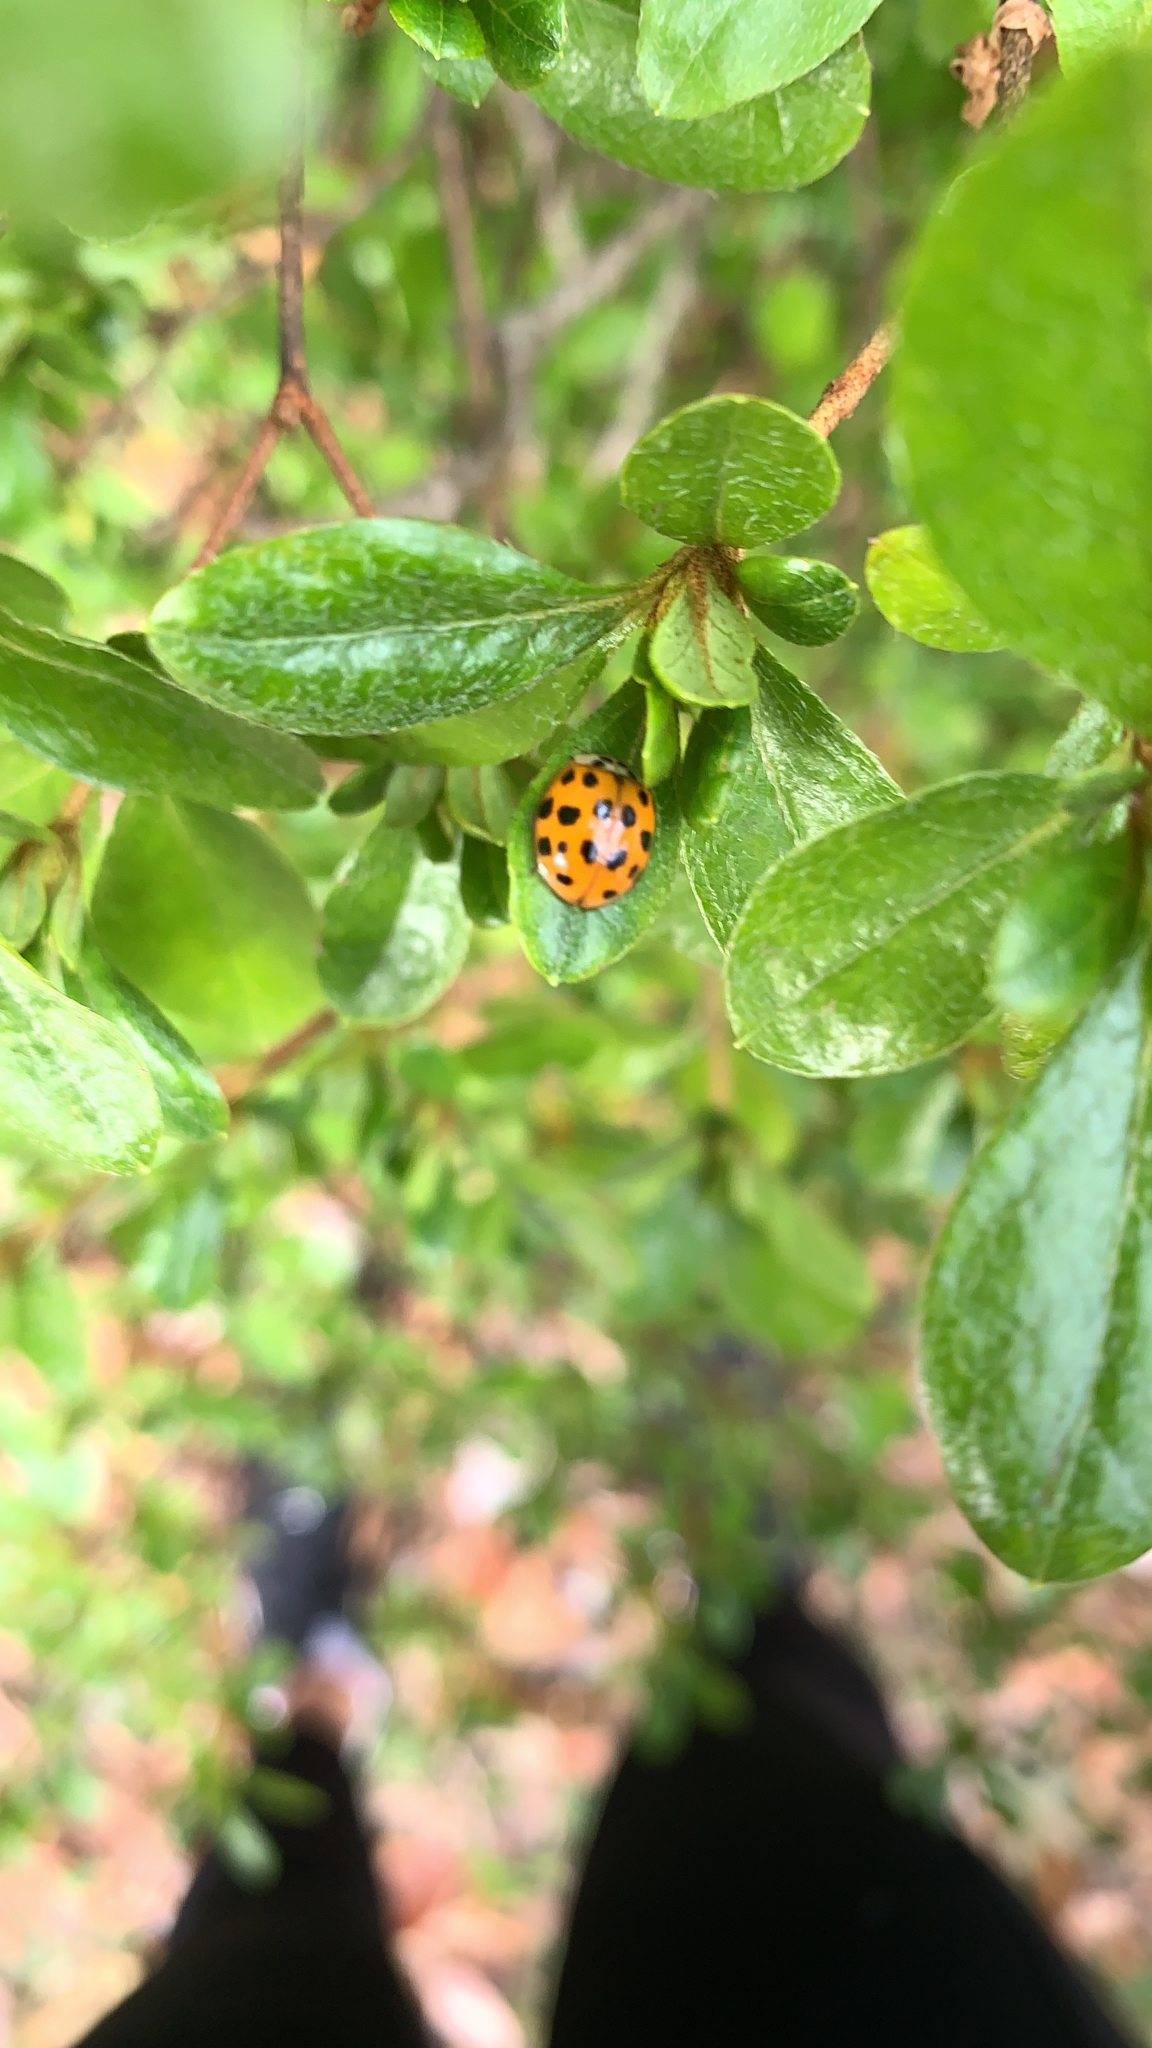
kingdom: Animalia
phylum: Arthropoda
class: Insecta
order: Coleoptera
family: Coccinellidae
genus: Harmonia
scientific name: Harmonia axyridis
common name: Harlequin ladybird
